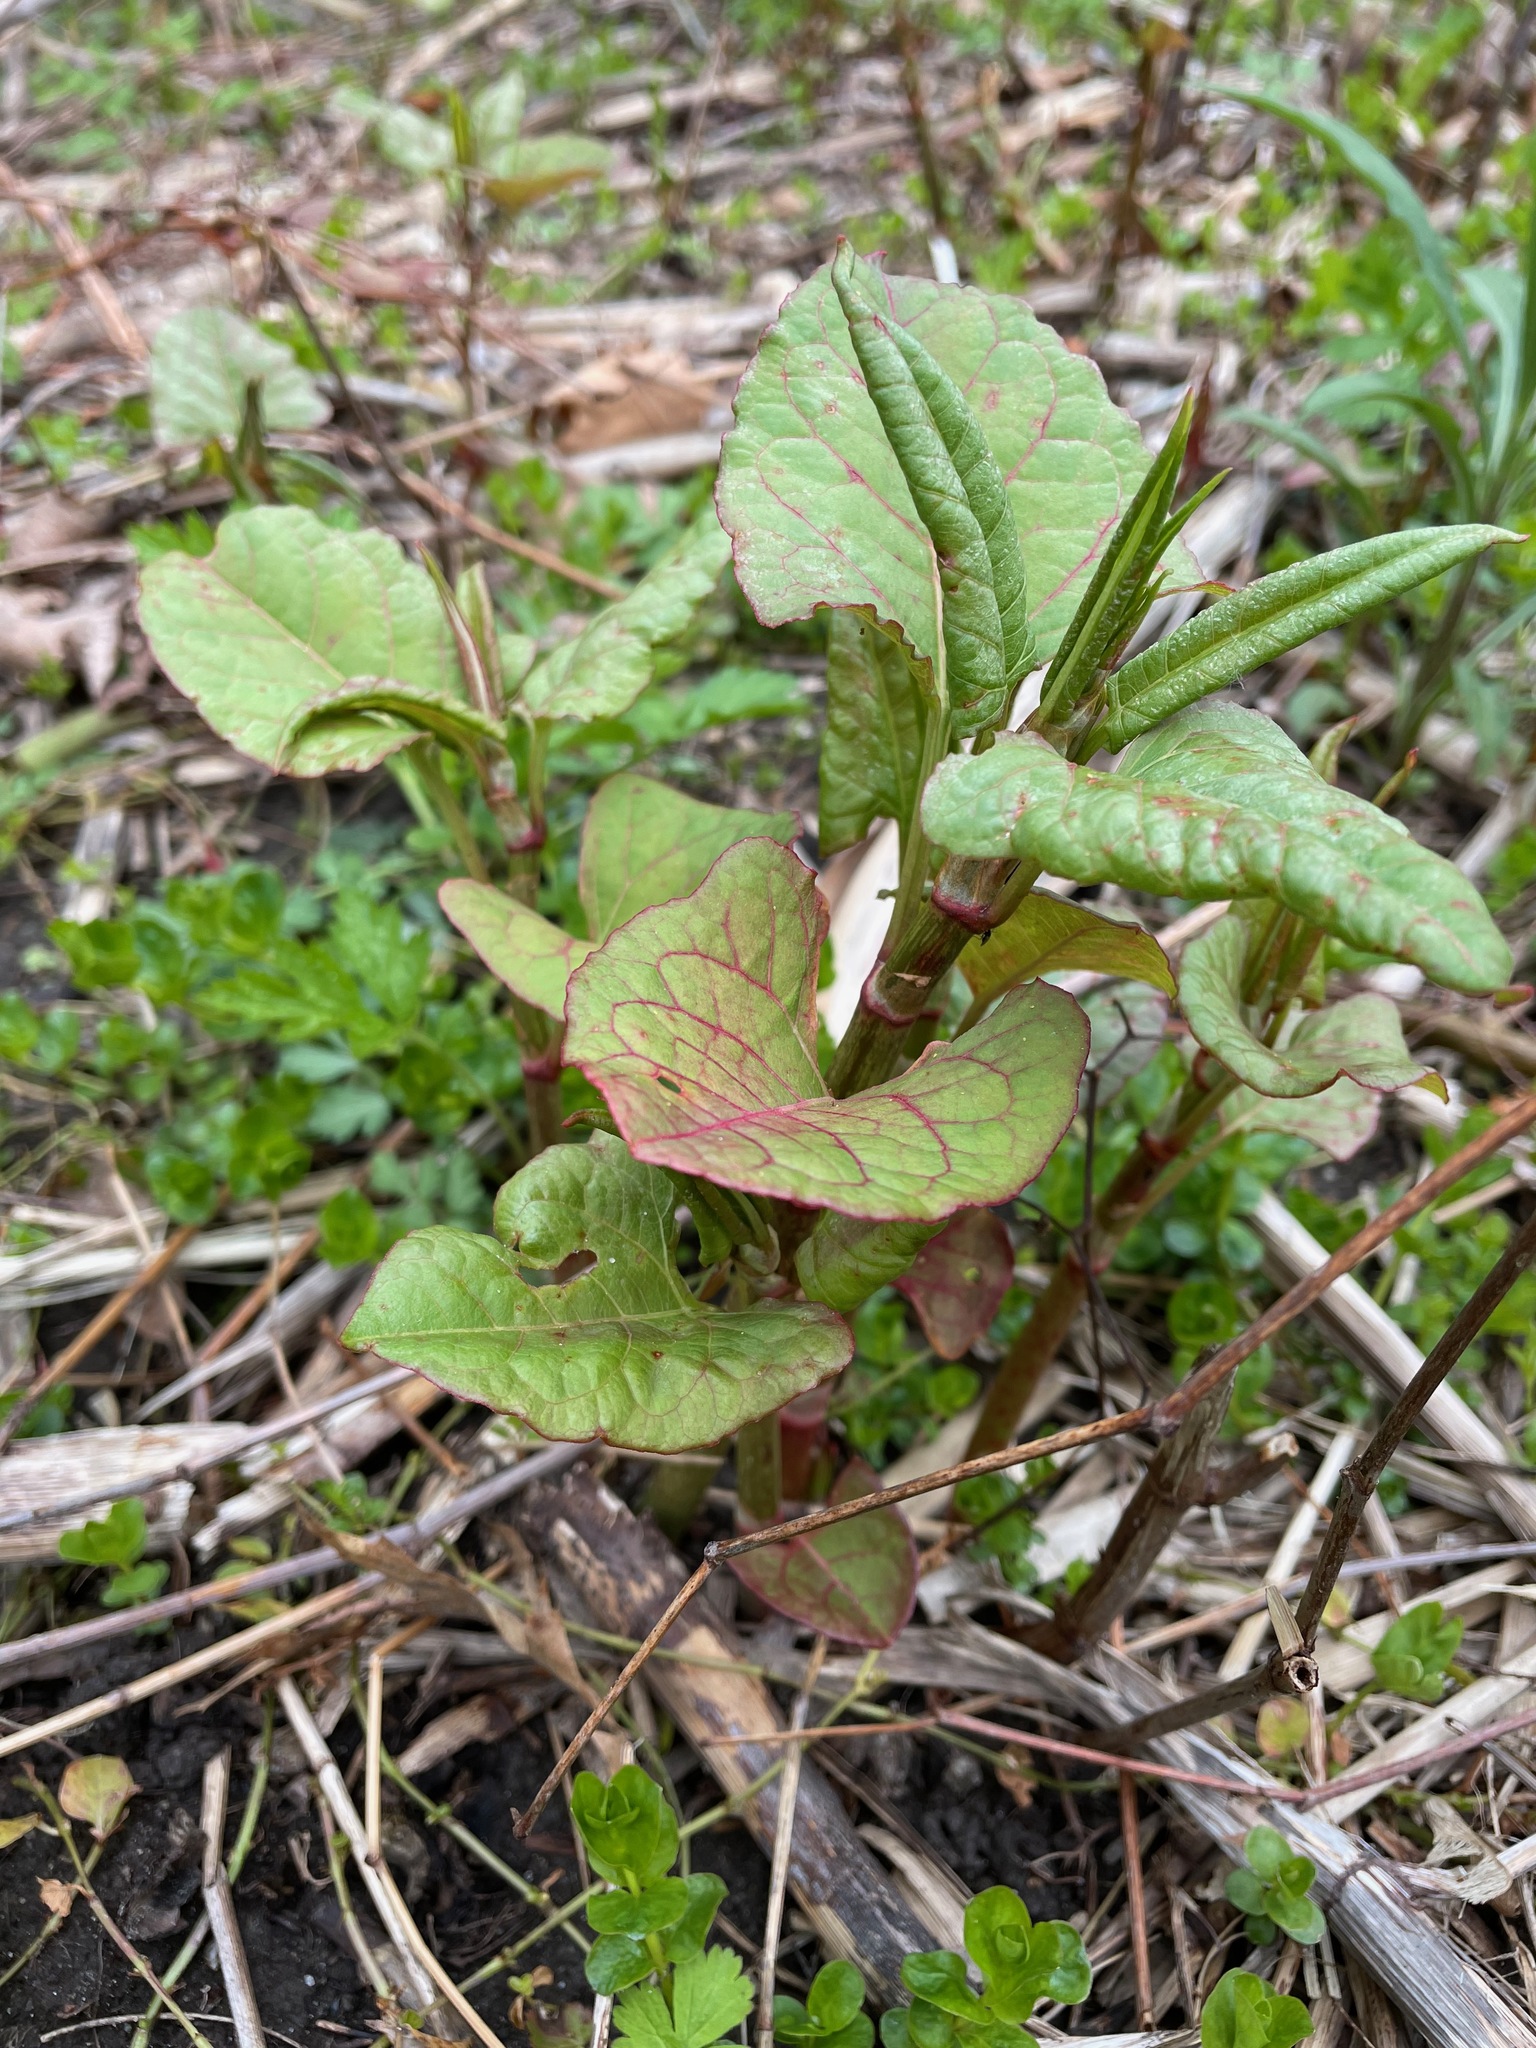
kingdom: Plantae
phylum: Tracheophyta
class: Magnoliopsida
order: Caryophyllales
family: Polygonaceae
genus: Reynoutria
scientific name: Reynoutria japonica
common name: Japanese knotweed
